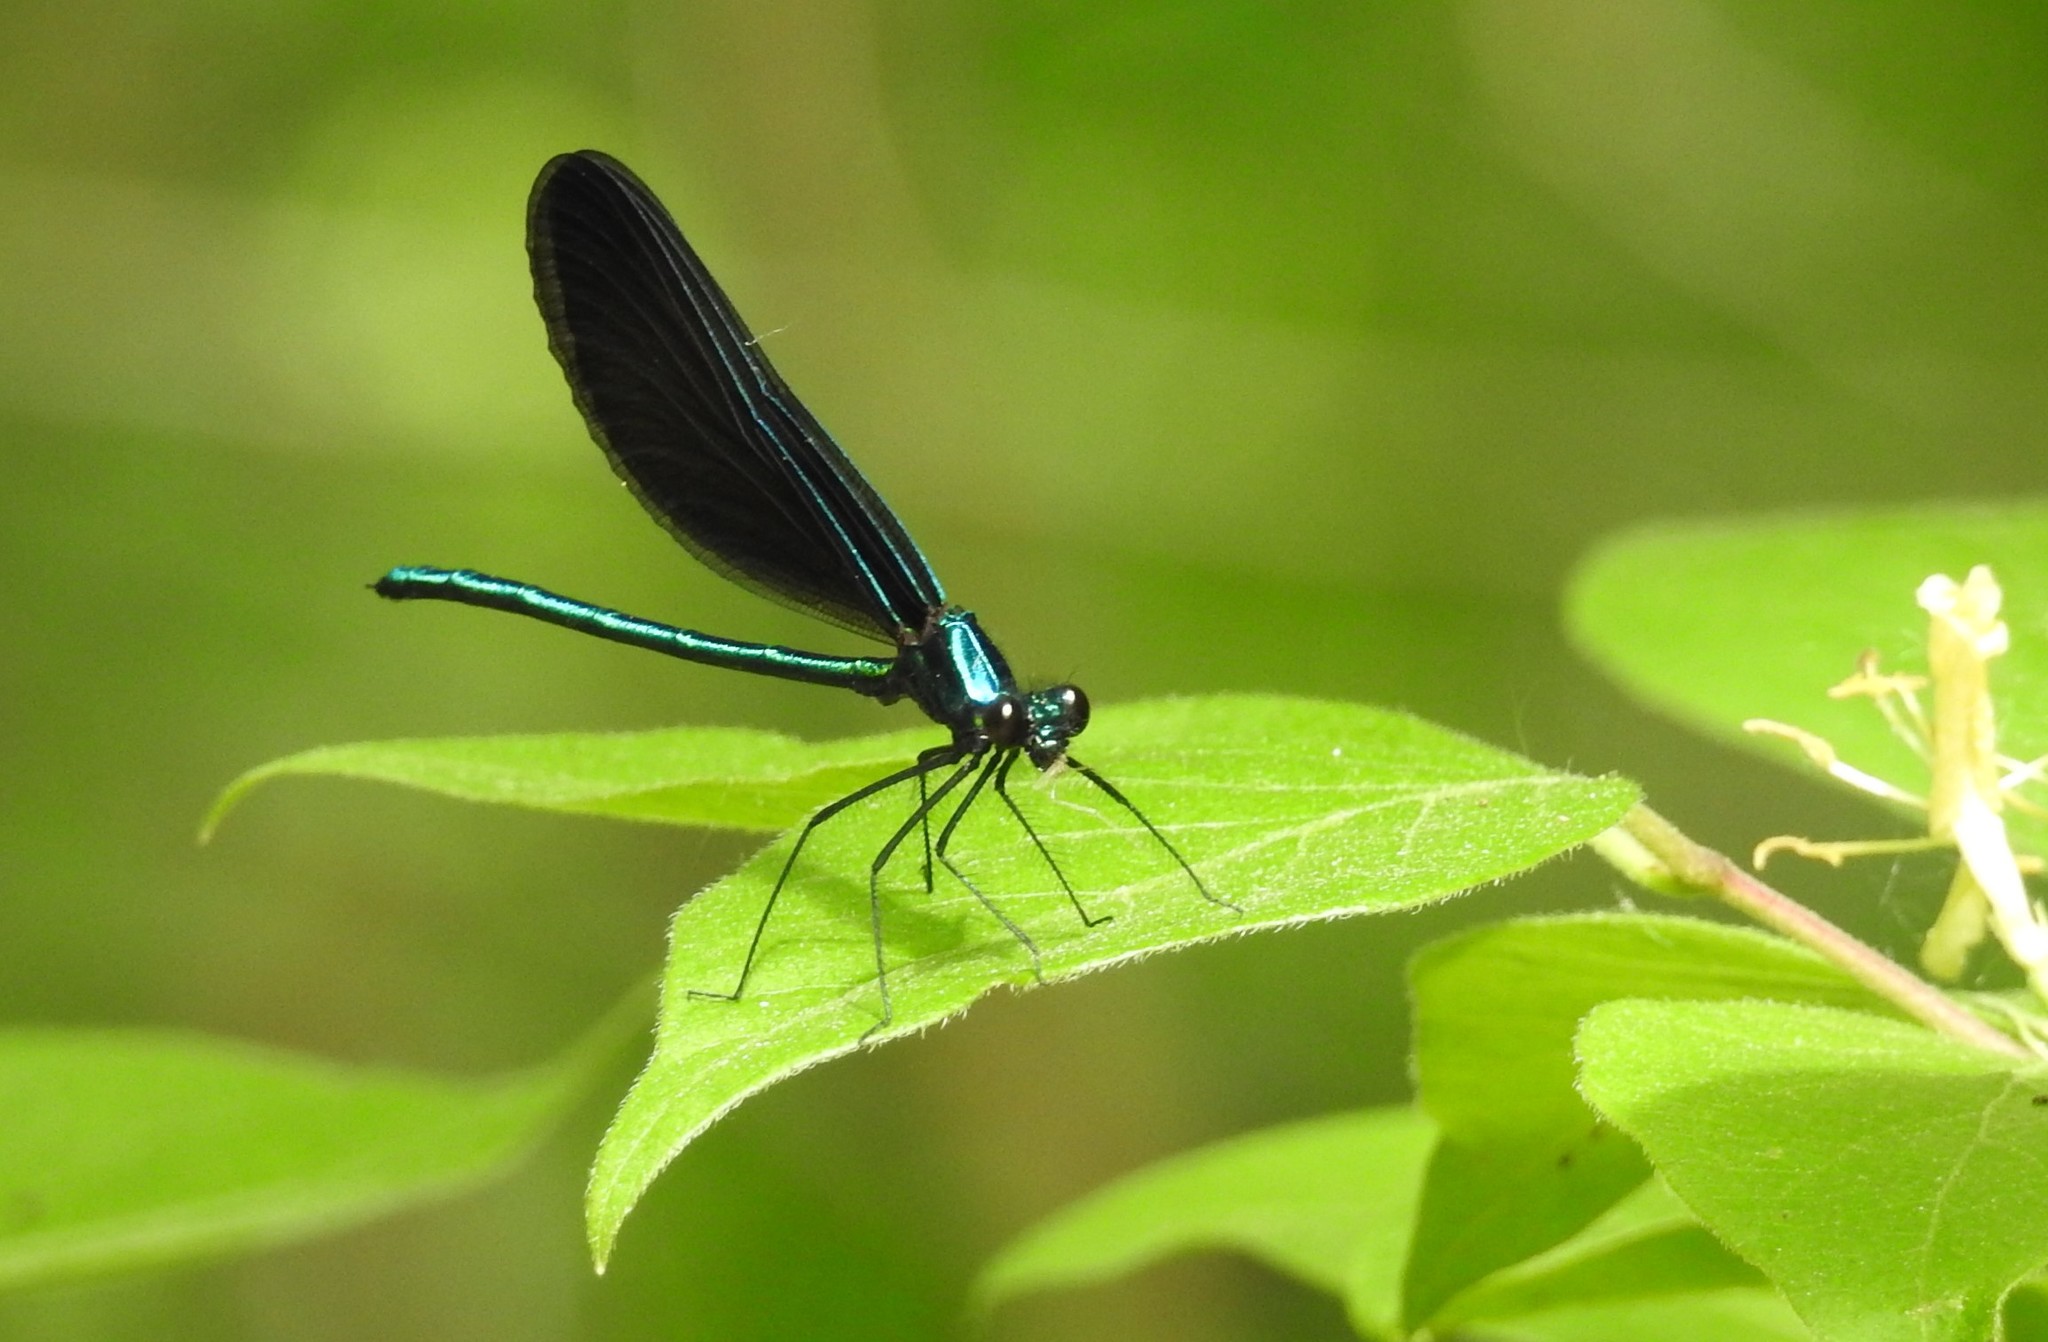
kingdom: Animalia
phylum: Arthropoda
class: Insecta
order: Odonata
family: Calopterygidae
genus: Calopteryx
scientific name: Calopteryx maculata
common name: Ebony jewelwing
